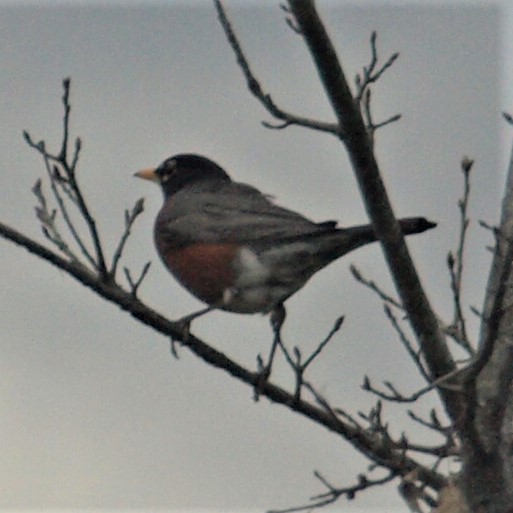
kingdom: Animalia
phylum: Chordata
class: Aves
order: Passeriformes
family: Turdidae
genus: Turdus
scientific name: Turdus migratorius
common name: American robin
